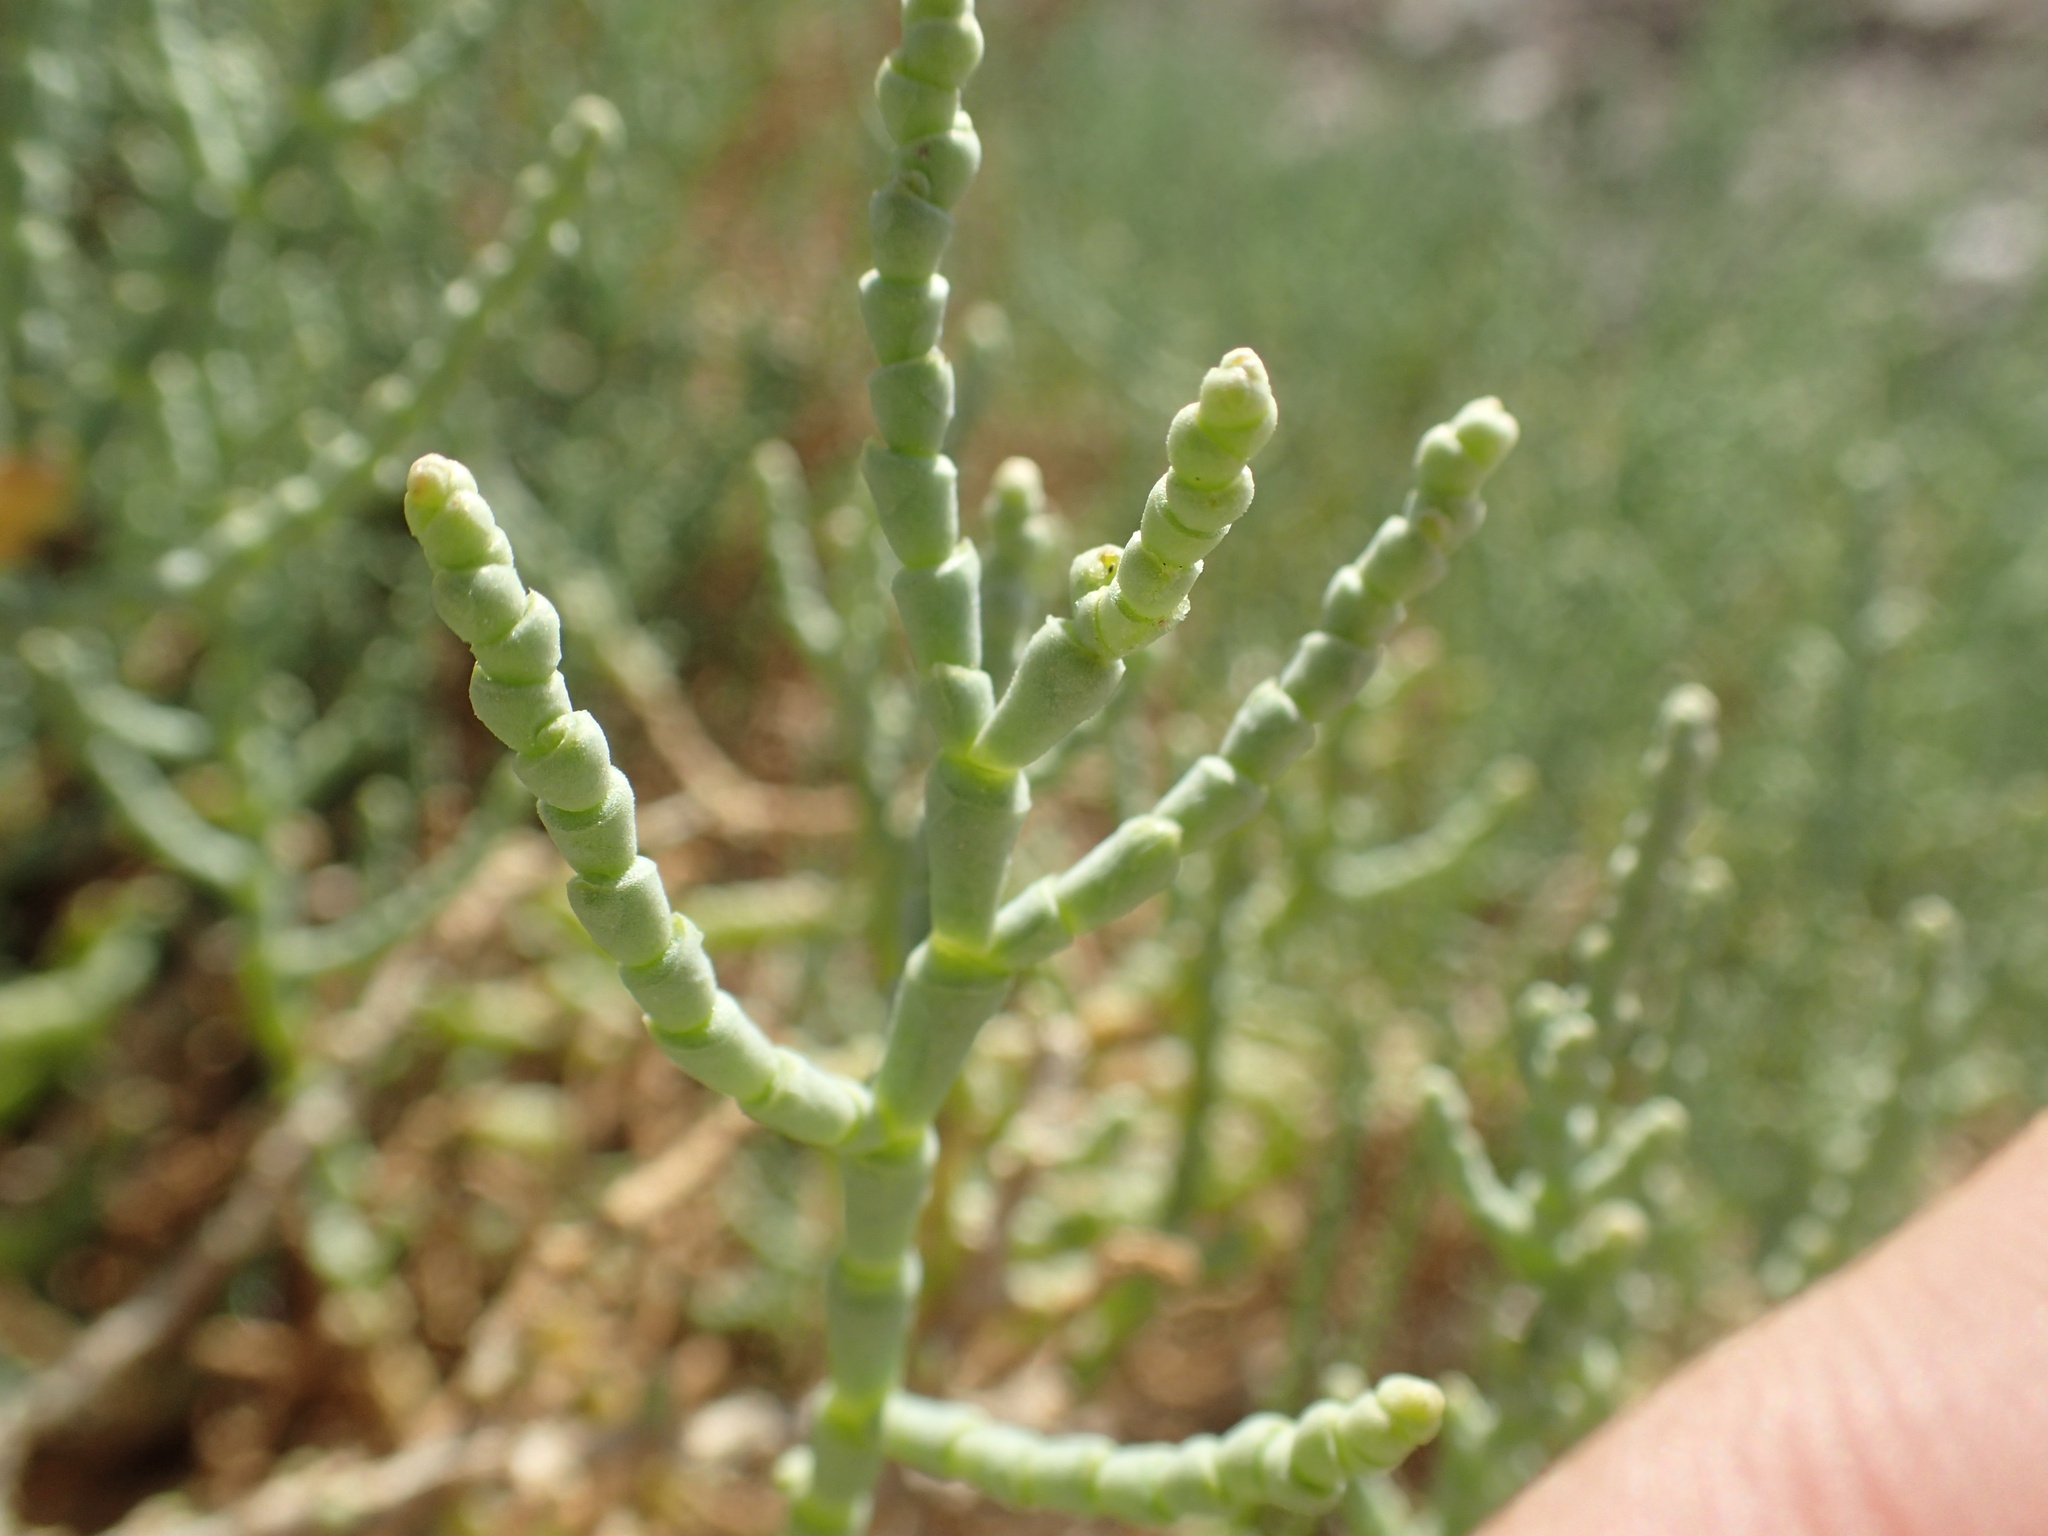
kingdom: Plantae
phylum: Tracheophyta
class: Magnoliopsida
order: Caryophyllales
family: Amaranthaceae
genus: Allenrolfea
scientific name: Allenrolfea occidentalis
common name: Iodine-bush
